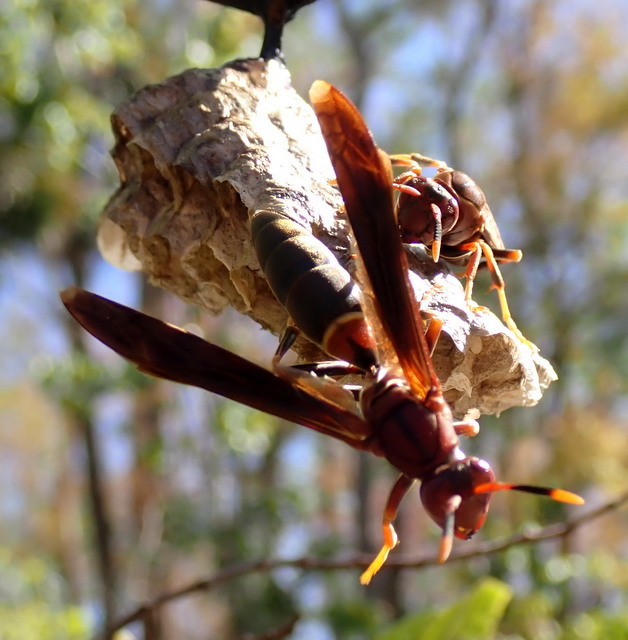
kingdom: Animalia
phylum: Arthropoda
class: Insecta
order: Hymenoptera
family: Eumenidae
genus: Polistes
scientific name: Polistes annularis
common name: Ringed paper wasp
